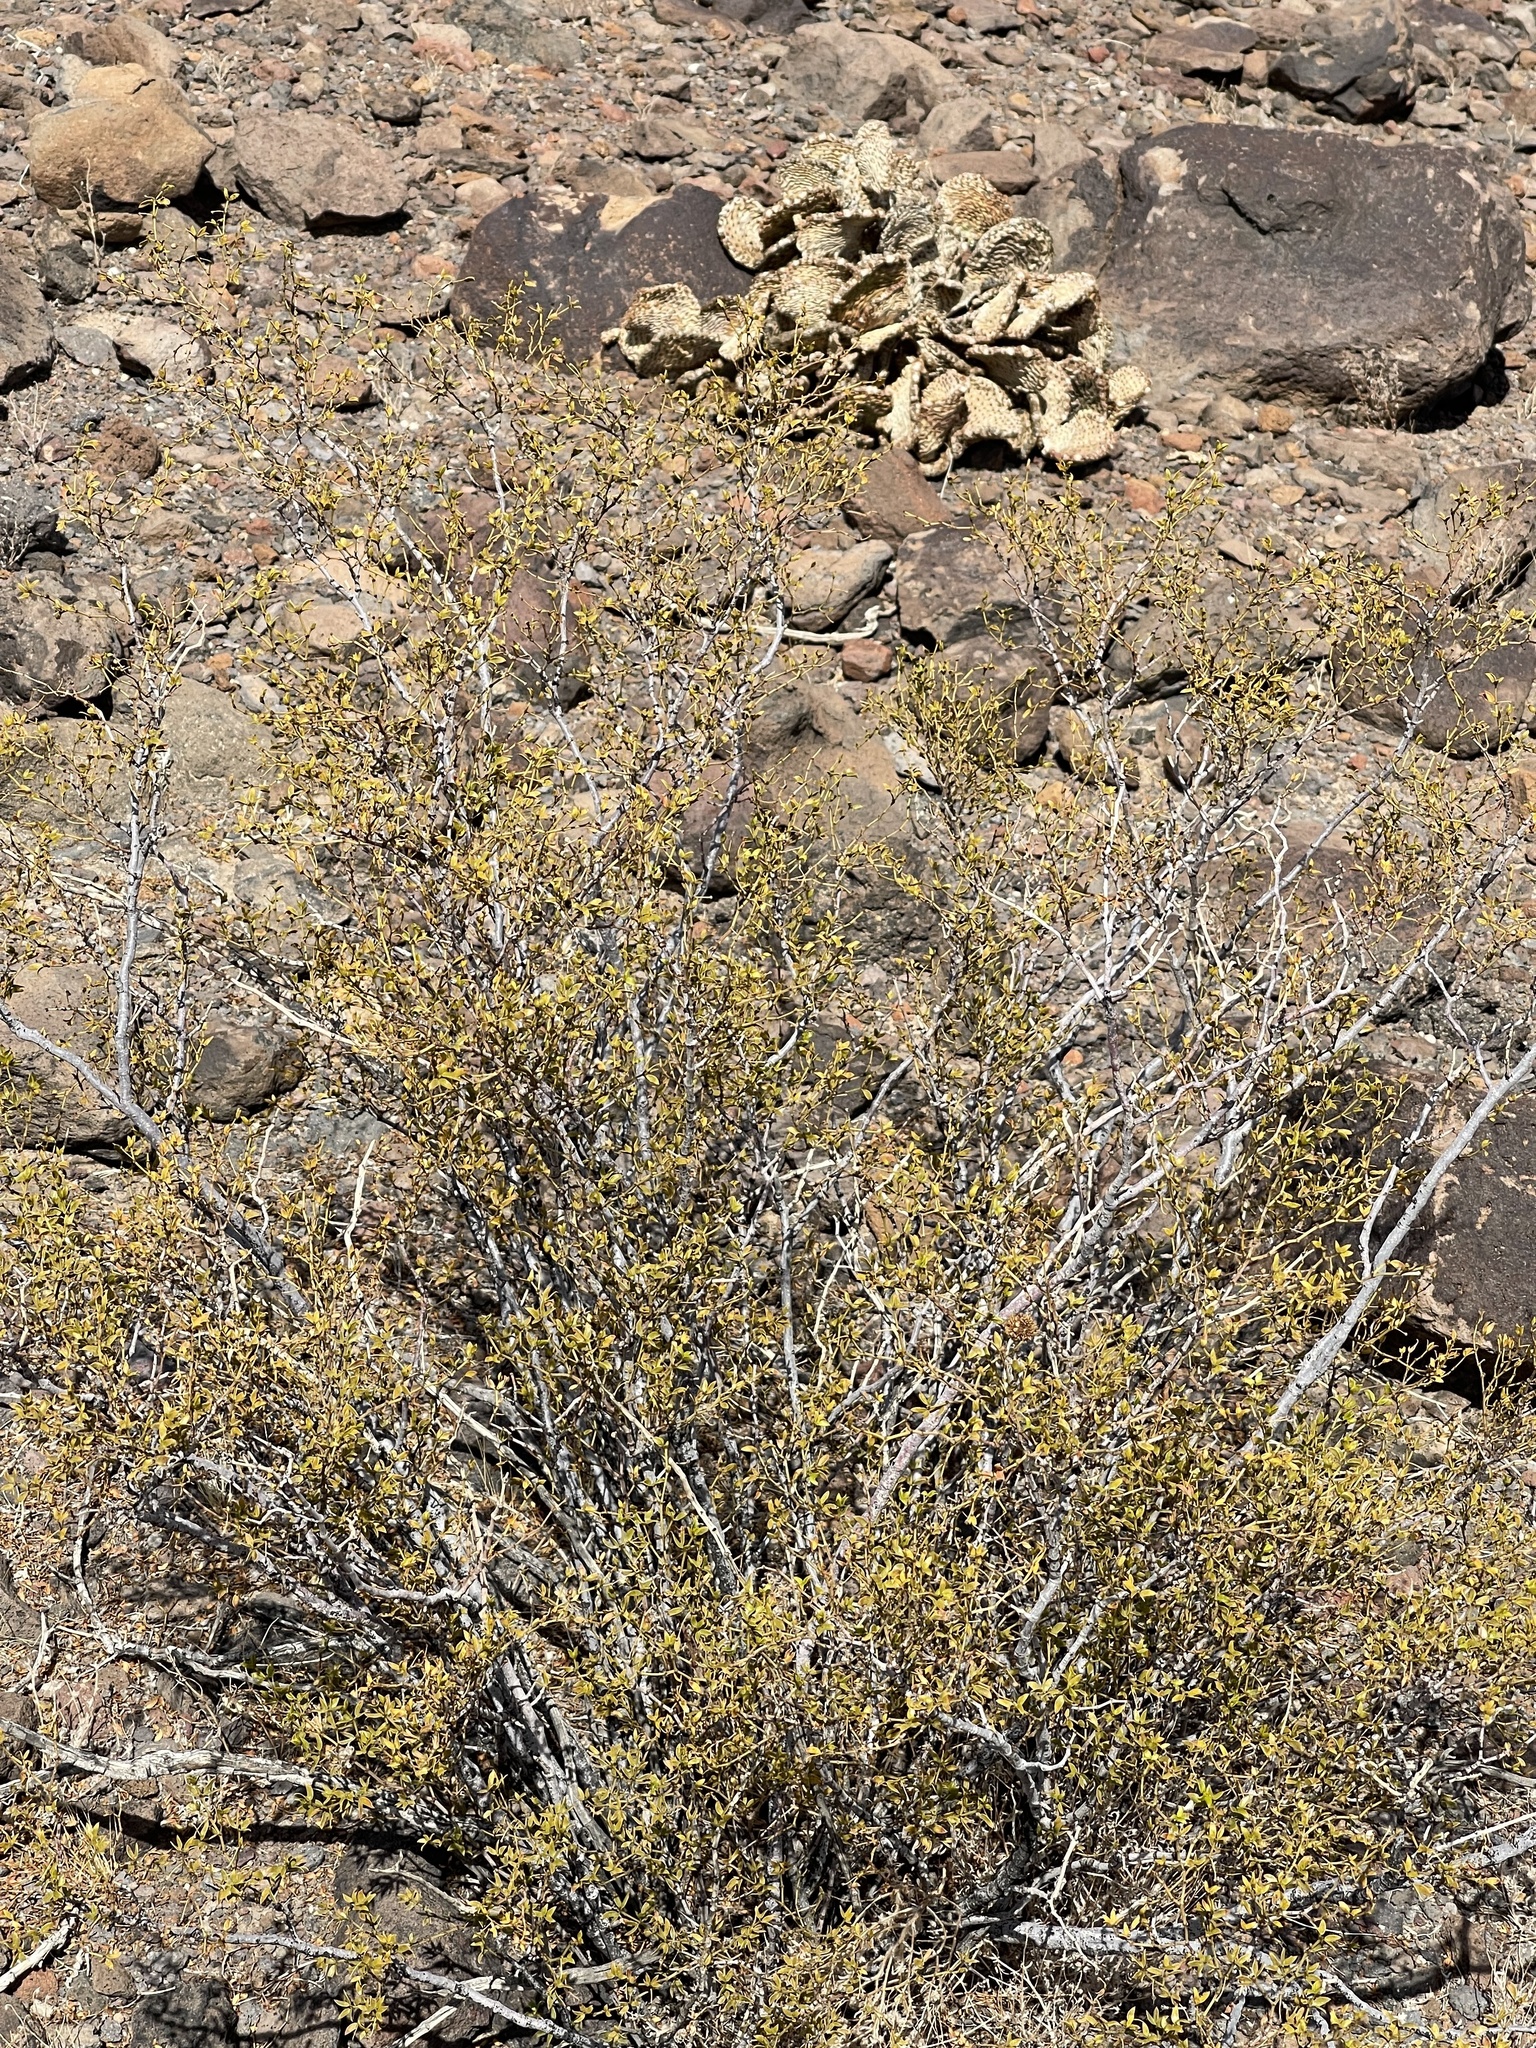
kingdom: Plantae
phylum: Tracheophyta
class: Magnoliopsida
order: Zygophyllales
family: Zygophyllaceae
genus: Larrea
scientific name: Larrea tridentata
